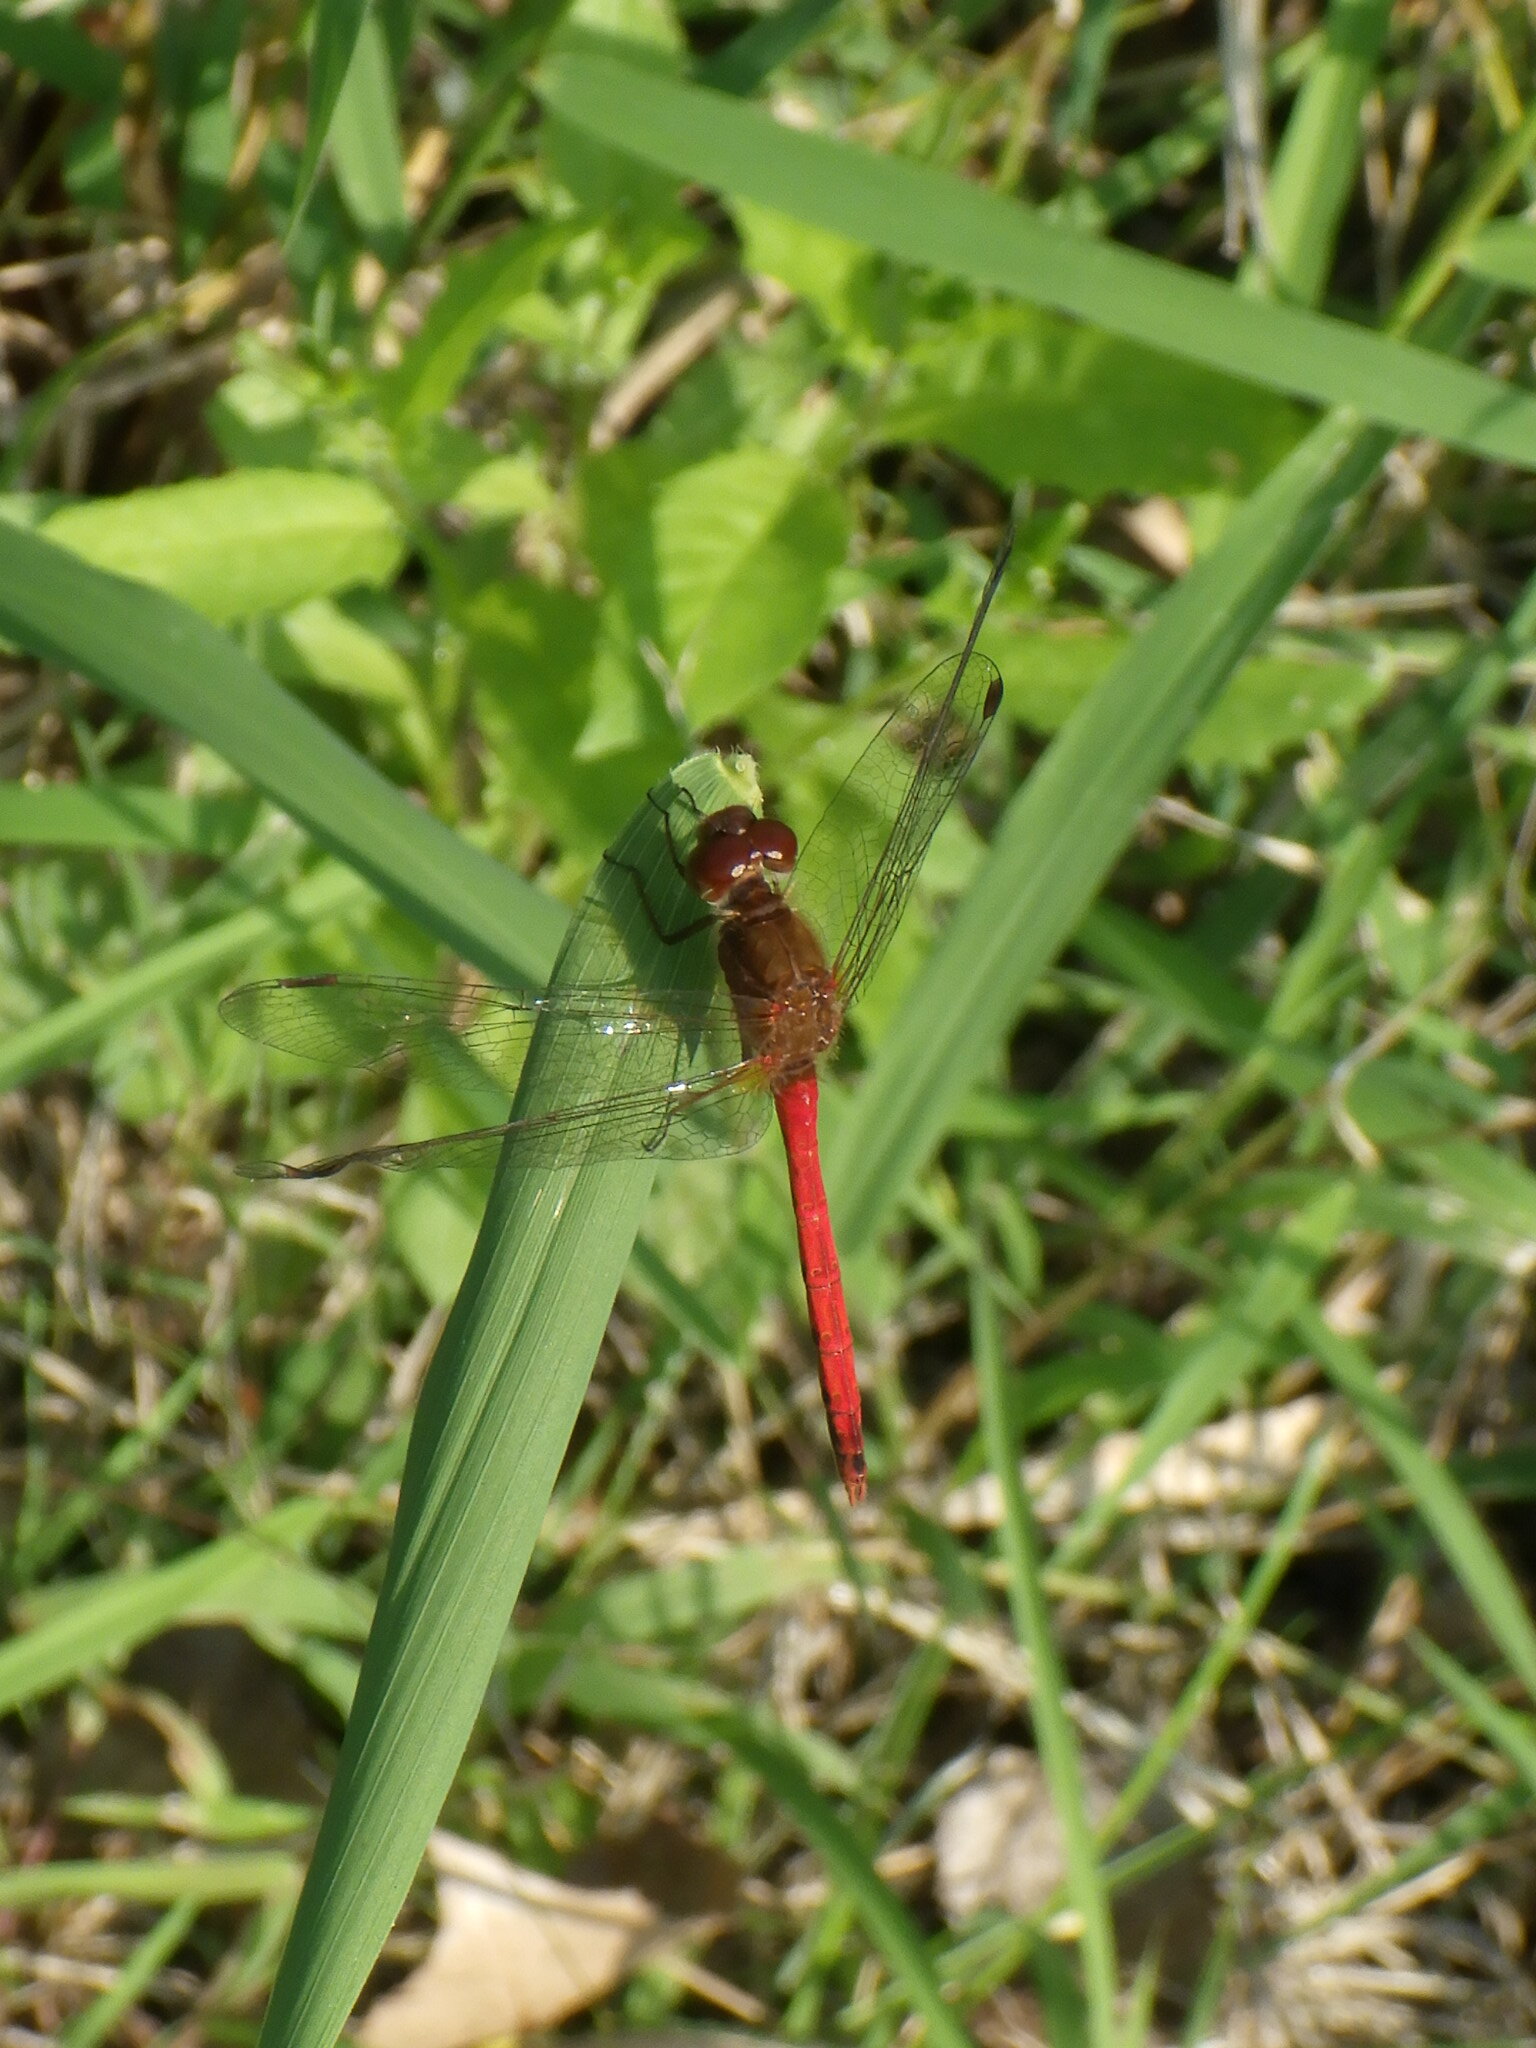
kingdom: Animalia
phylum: Arthropoda
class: Insecta
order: Odonata
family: Libellulidae
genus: Sympetrum
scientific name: Sympetrum vicinum
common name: Autumn meadowhawk
